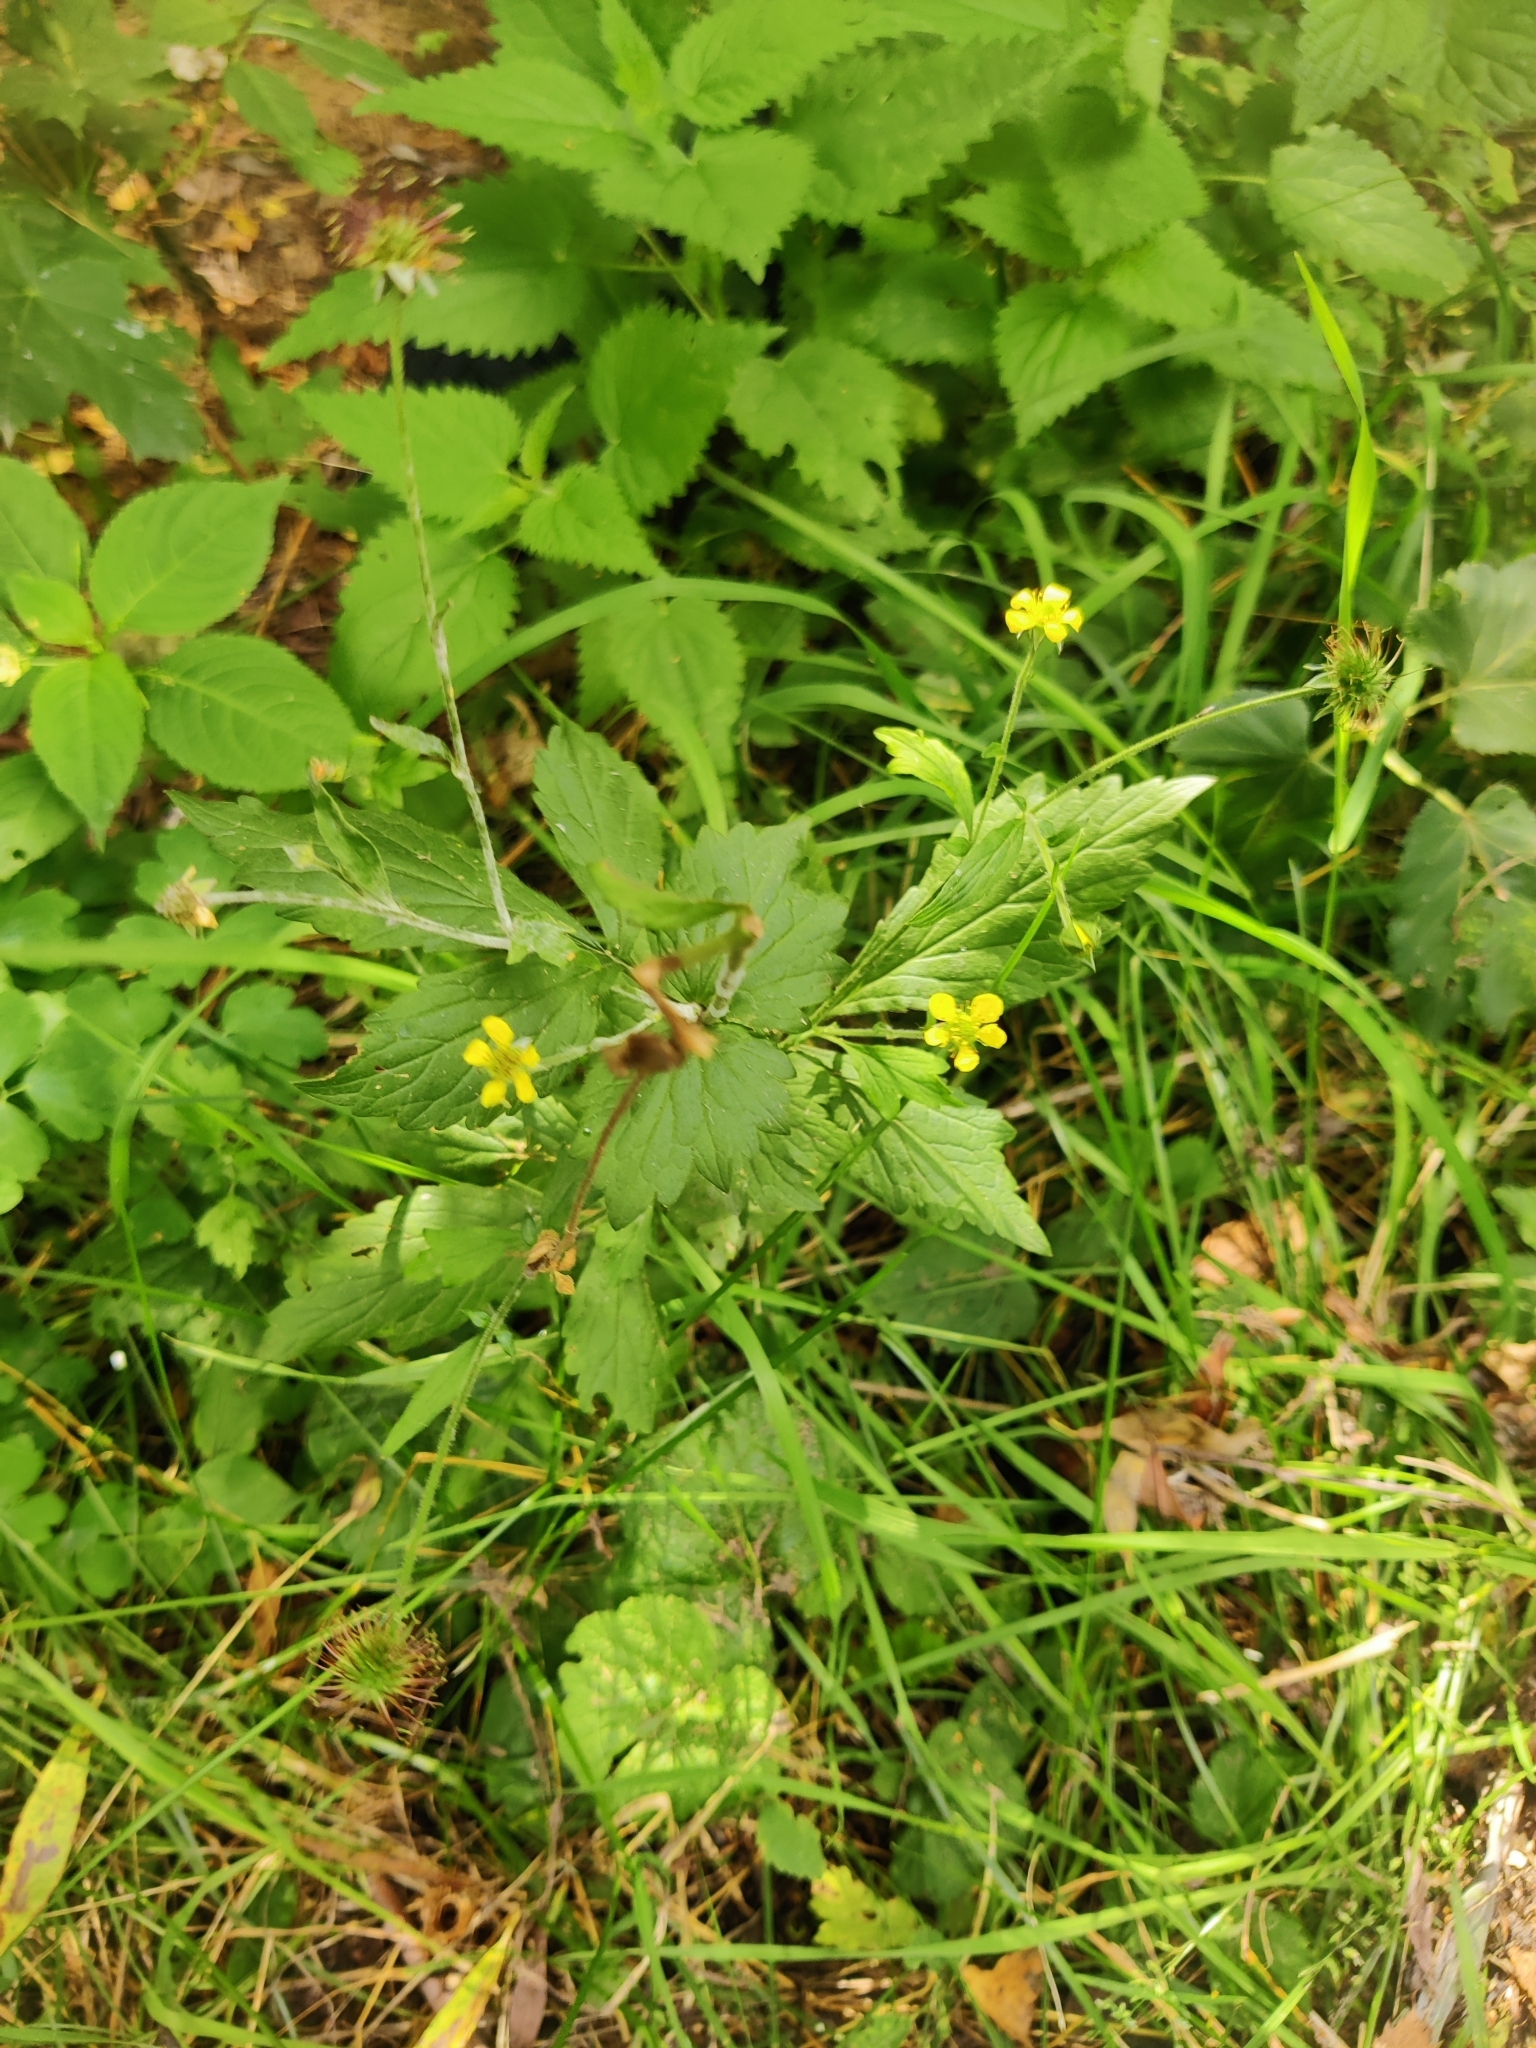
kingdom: Plantae
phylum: Tracheophyta
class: Magnoliopsida
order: Rosales
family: Rosaceae
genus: Geum
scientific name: Geum urbanum
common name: Wood avens
